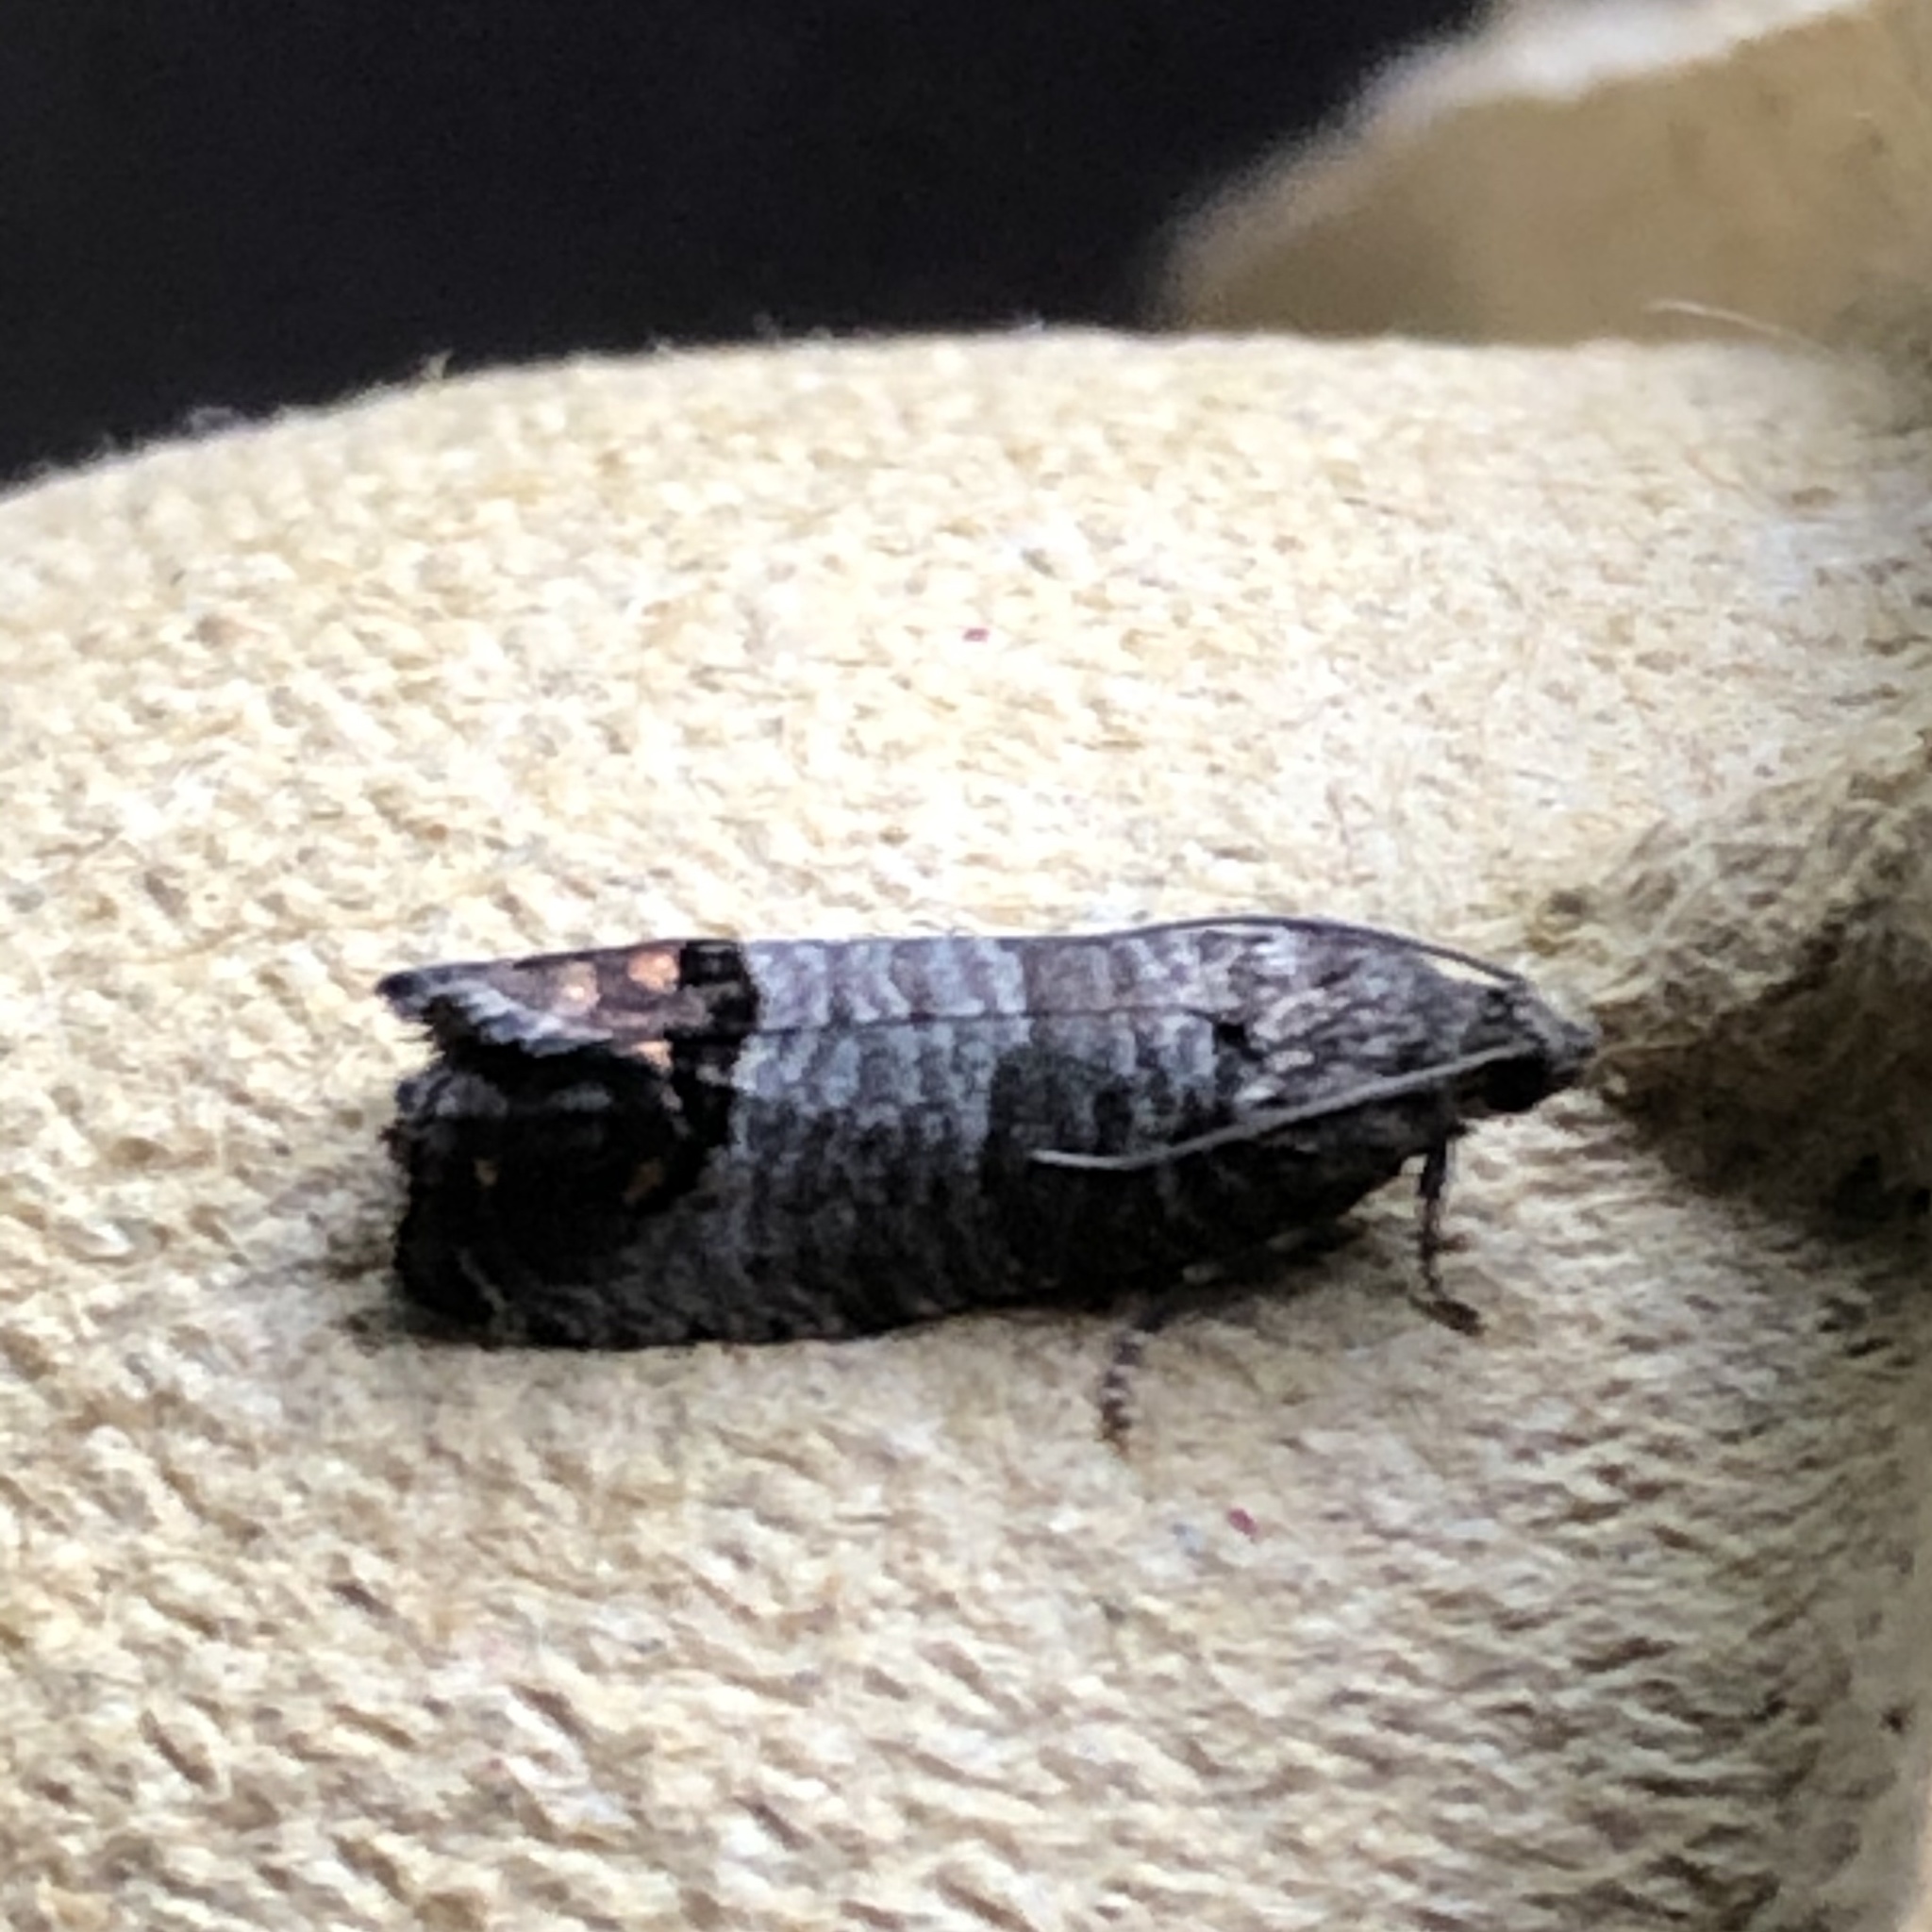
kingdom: Animalia
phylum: Arthropoda
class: Insecta
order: Lepidoptera
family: Tortricidae
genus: Cydia
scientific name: Cydia pomonella
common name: Codling moth
